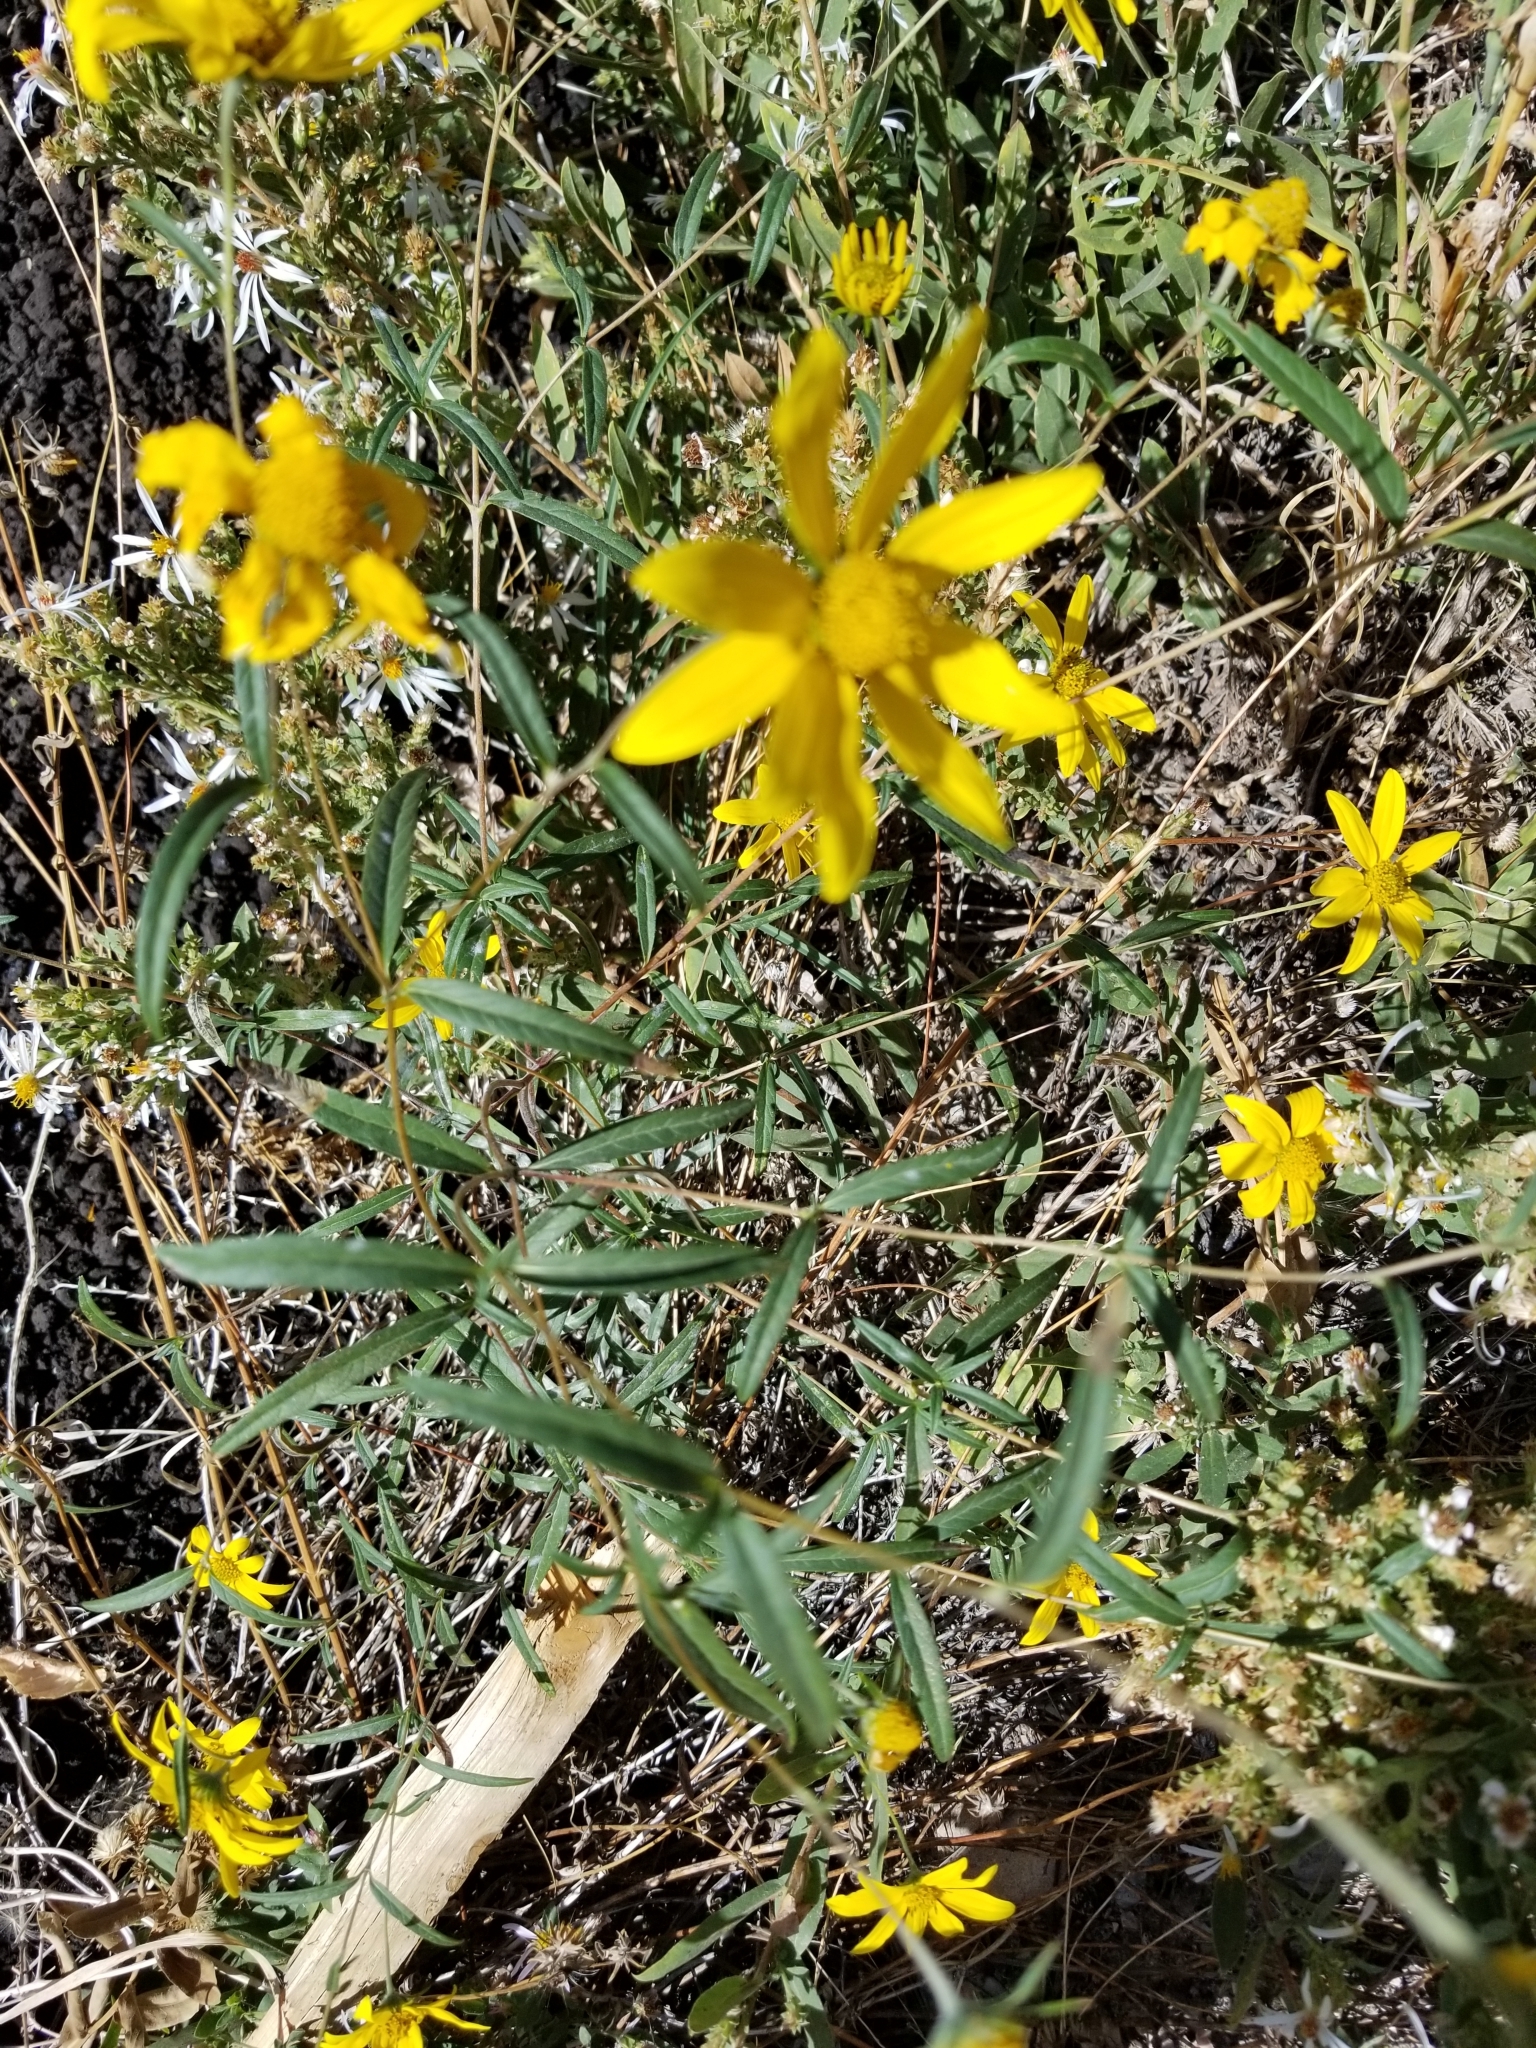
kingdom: Plantae
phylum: Tracheophyta
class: Magnoliopsida
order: Asterales
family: Asteraceae
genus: Heliomeris
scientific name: Heliomeris multiflora
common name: Showy goldeneye
